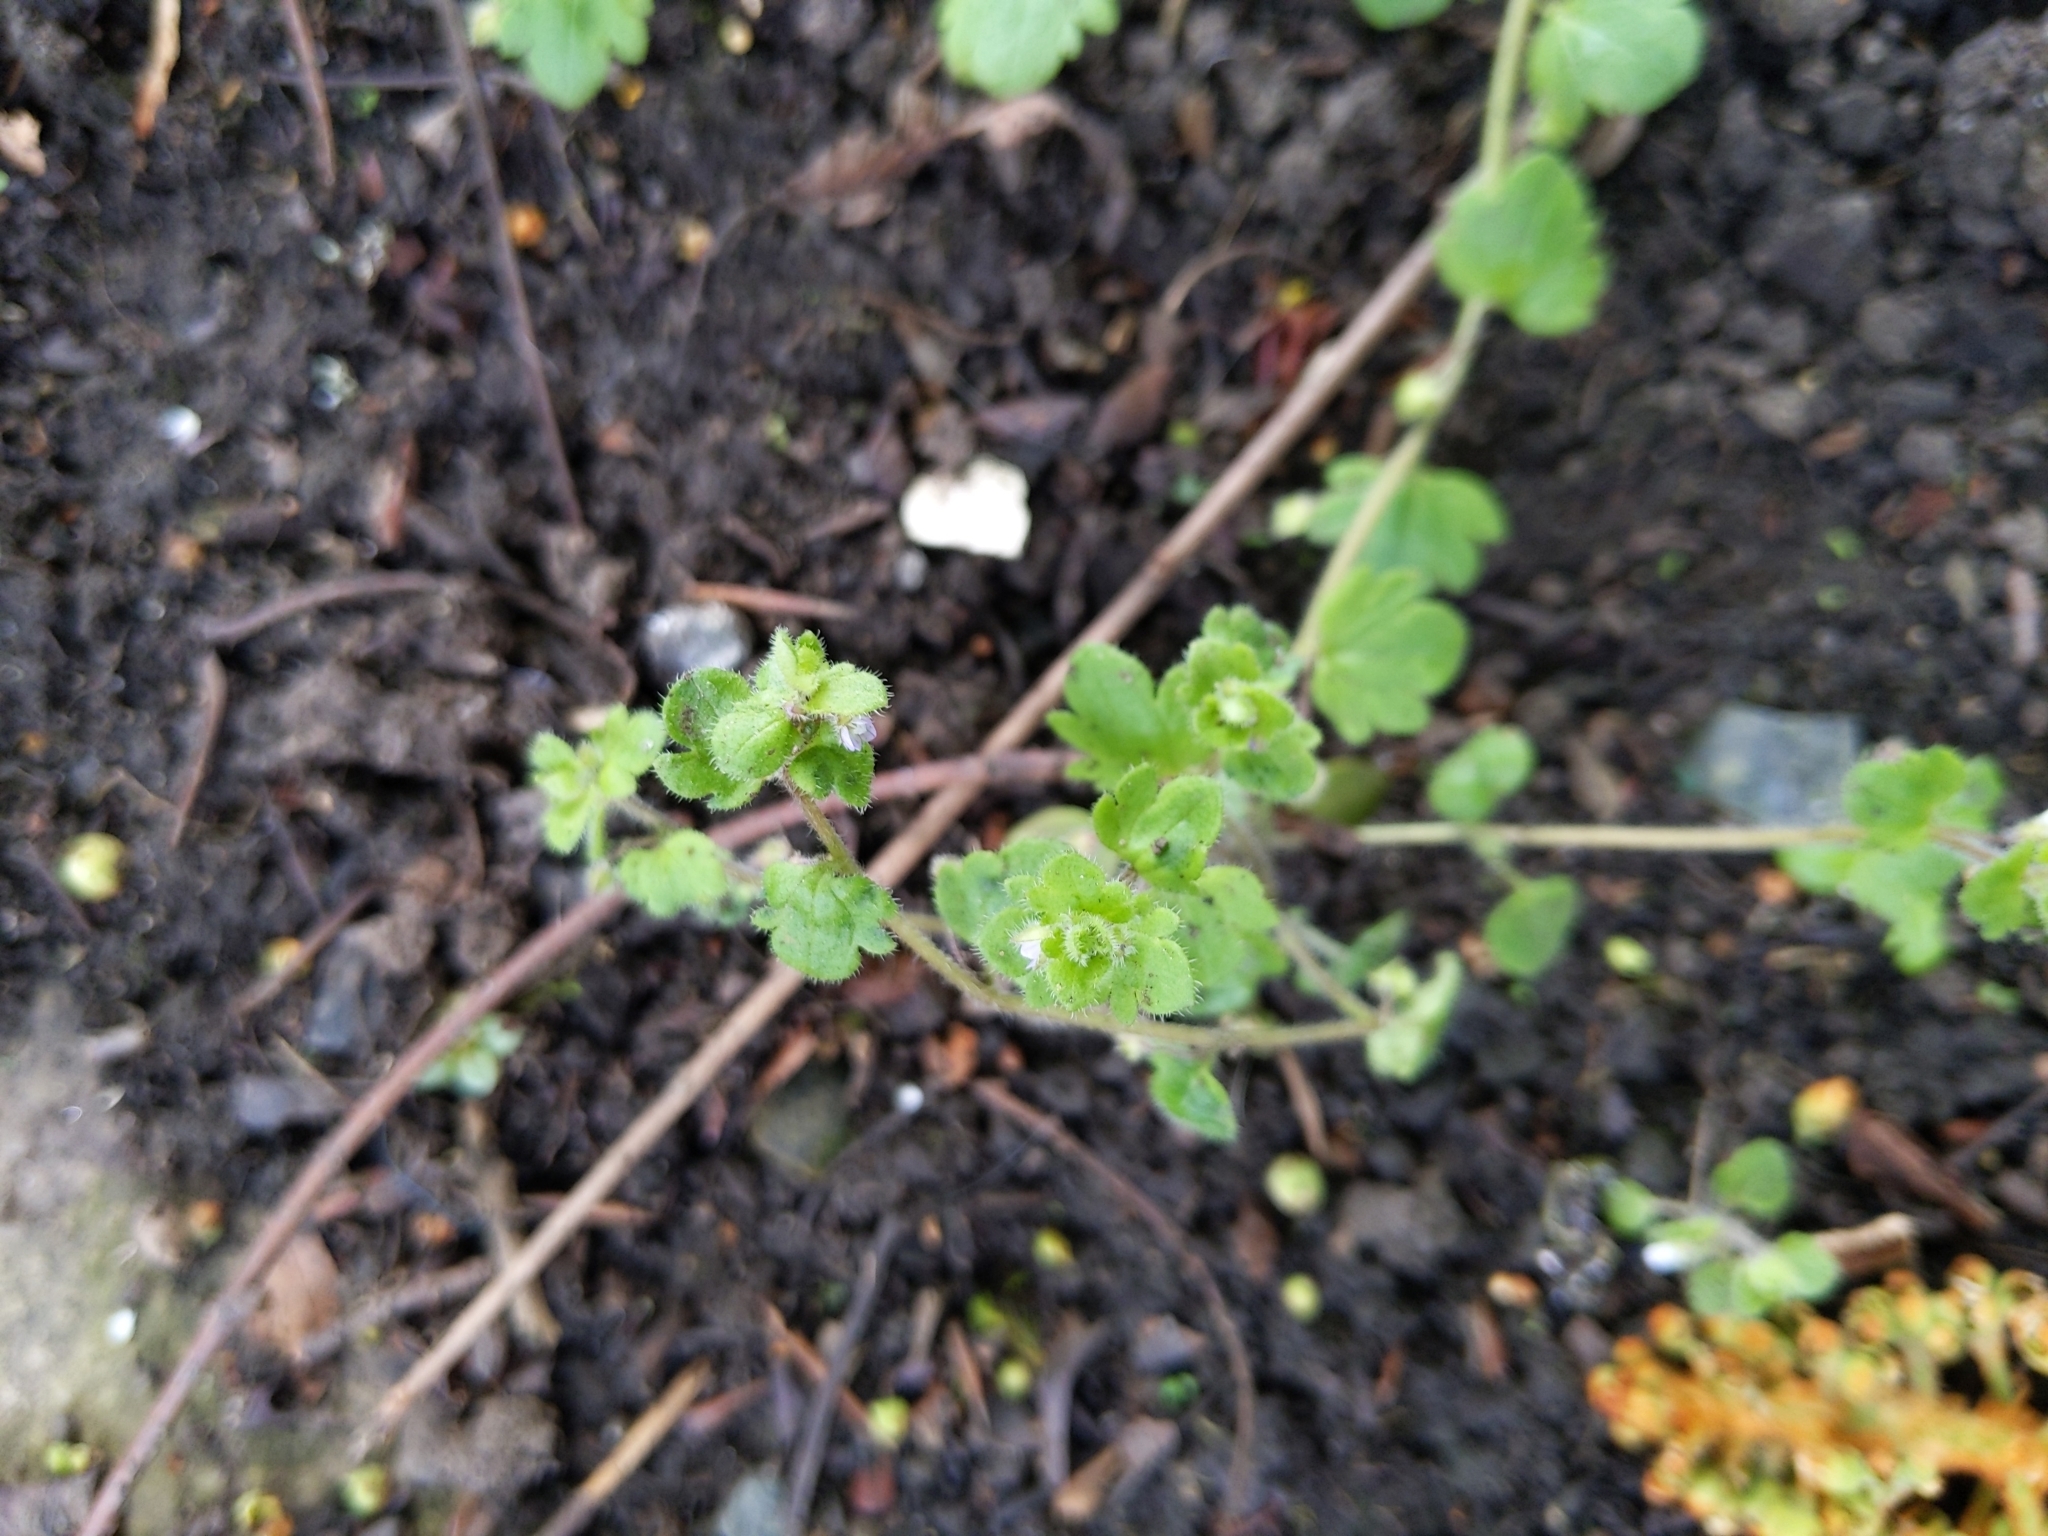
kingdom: Plantae
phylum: Tracheophyta
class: Magnoliopsida
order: Lamiales
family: Plantaginaceae
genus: Veronica
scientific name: Veronica hederifolia
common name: Ivy-leaved speedwell
